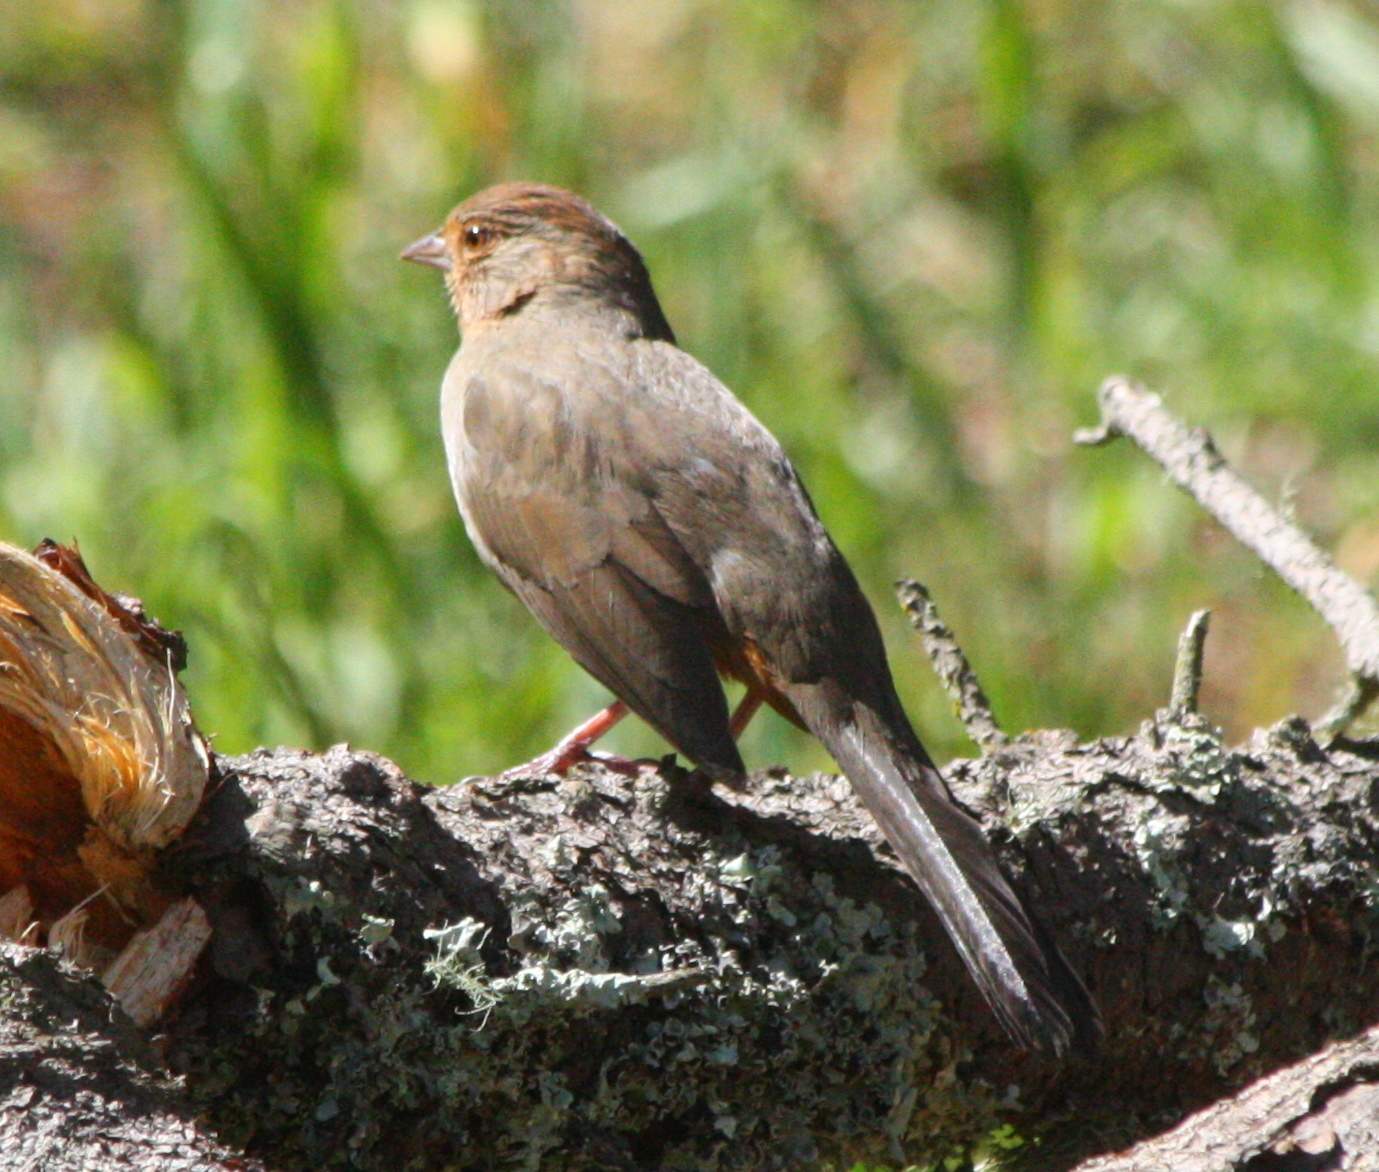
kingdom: Animalia
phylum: Chordata
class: Aves
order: Passeriformes
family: Passerellidae
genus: Melozone
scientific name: Melozone crissalis
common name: California towhee
